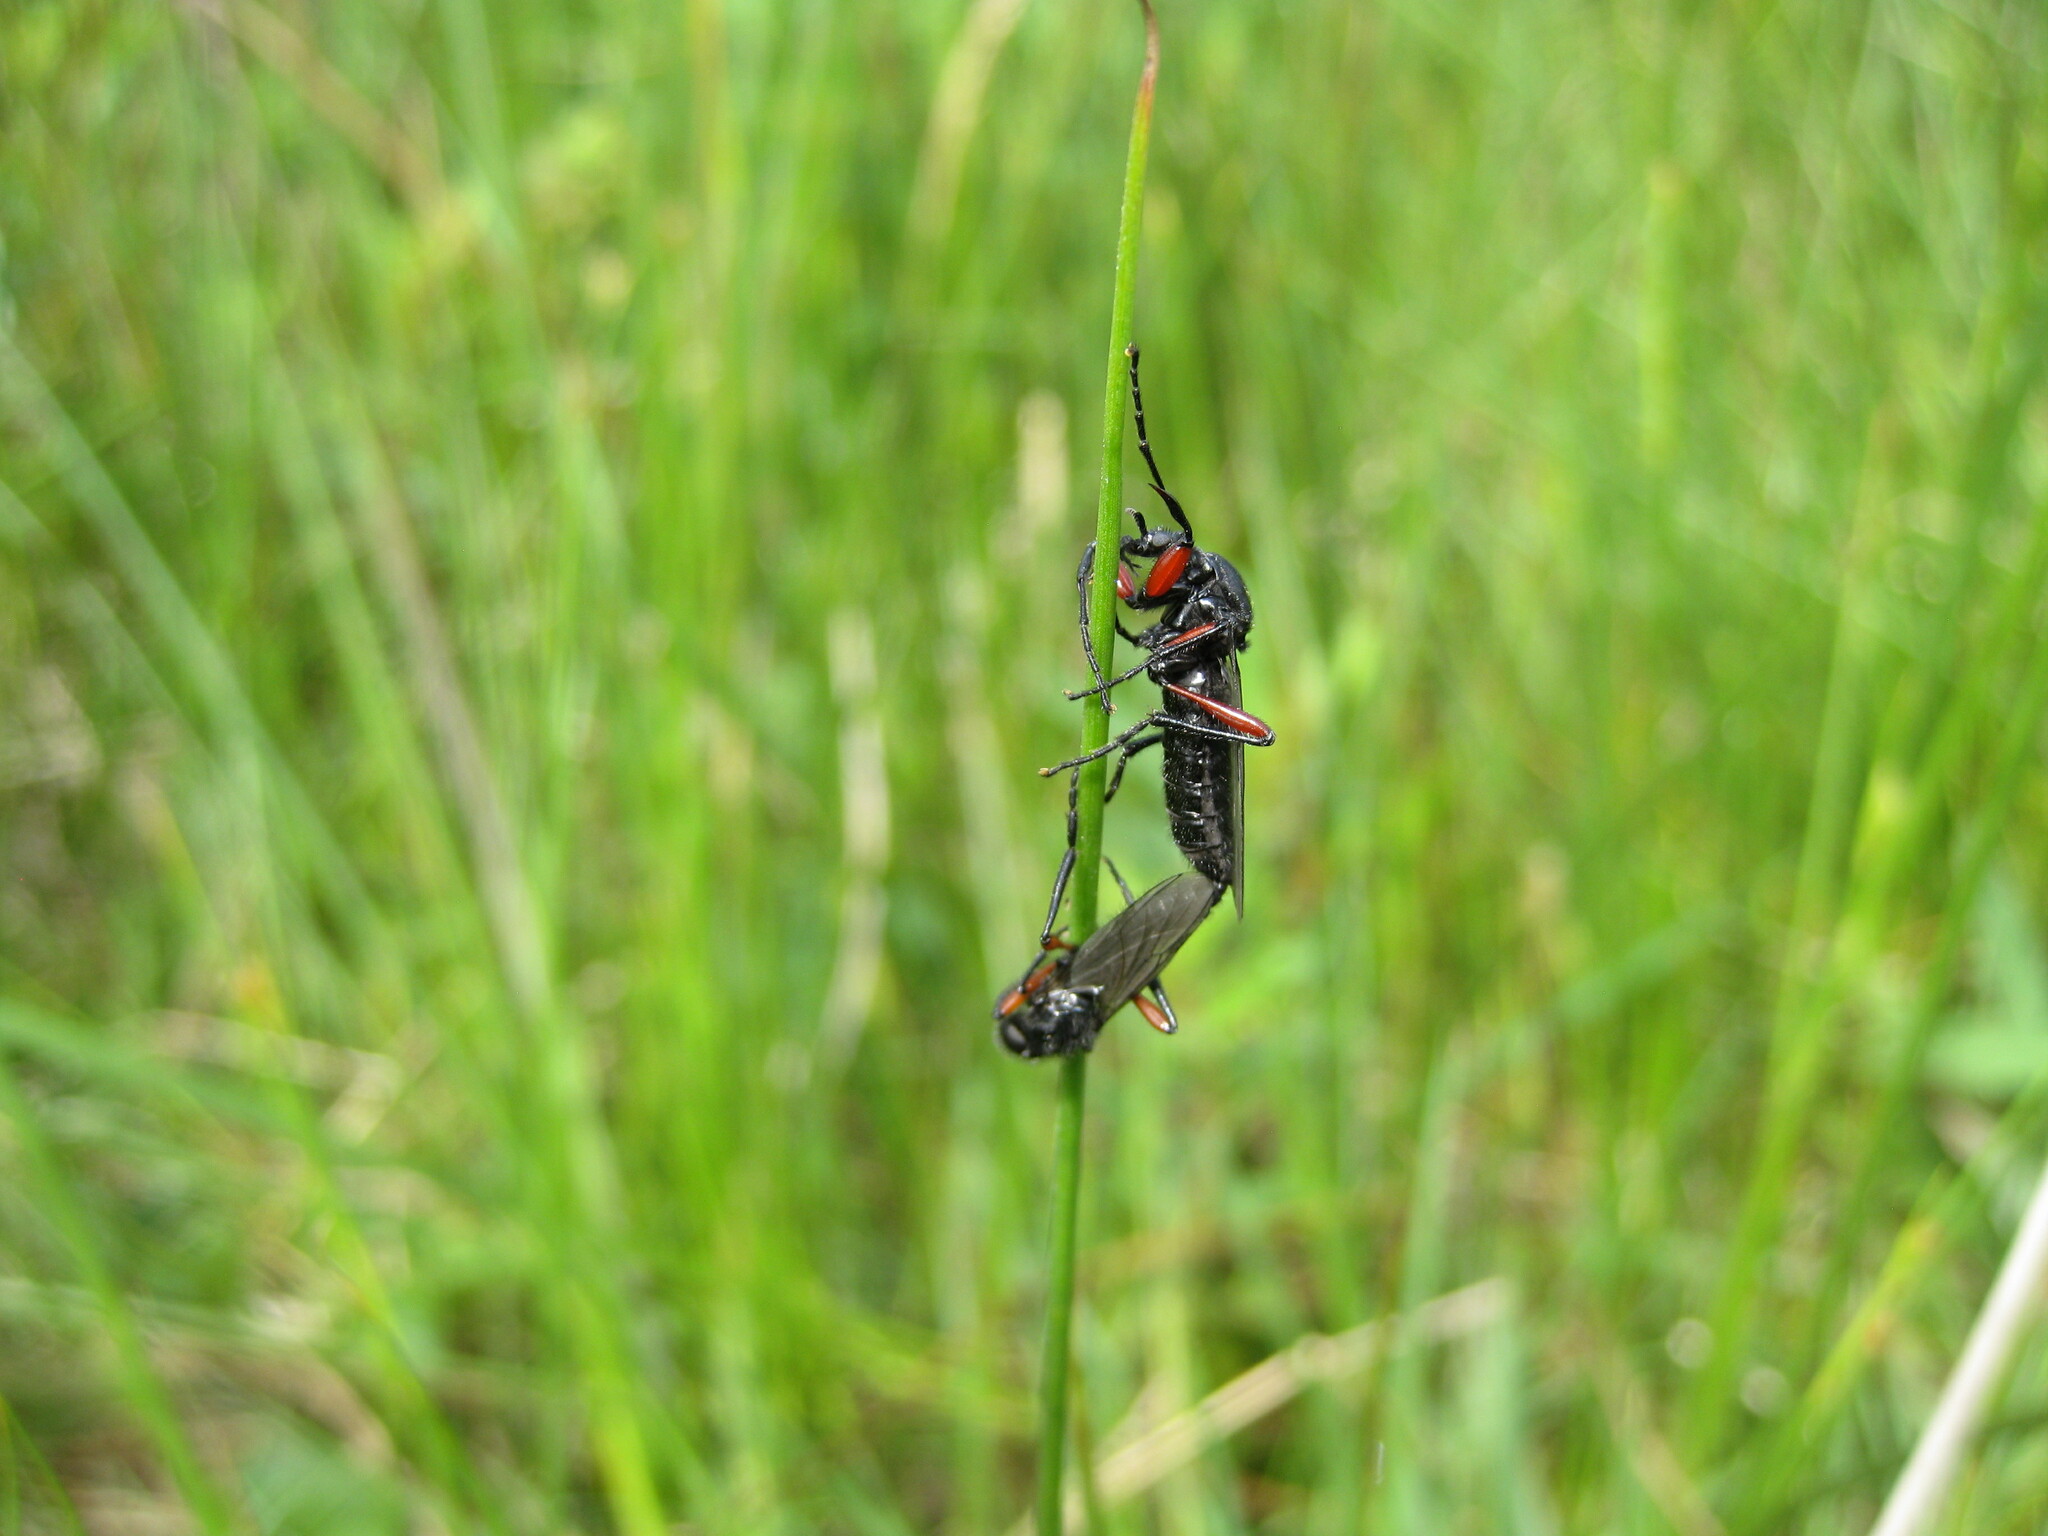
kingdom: Animalia
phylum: Arthropoda
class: Insecta
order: Diptera
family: Bibionidae
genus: Bibio
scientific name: Bibio pomonae
